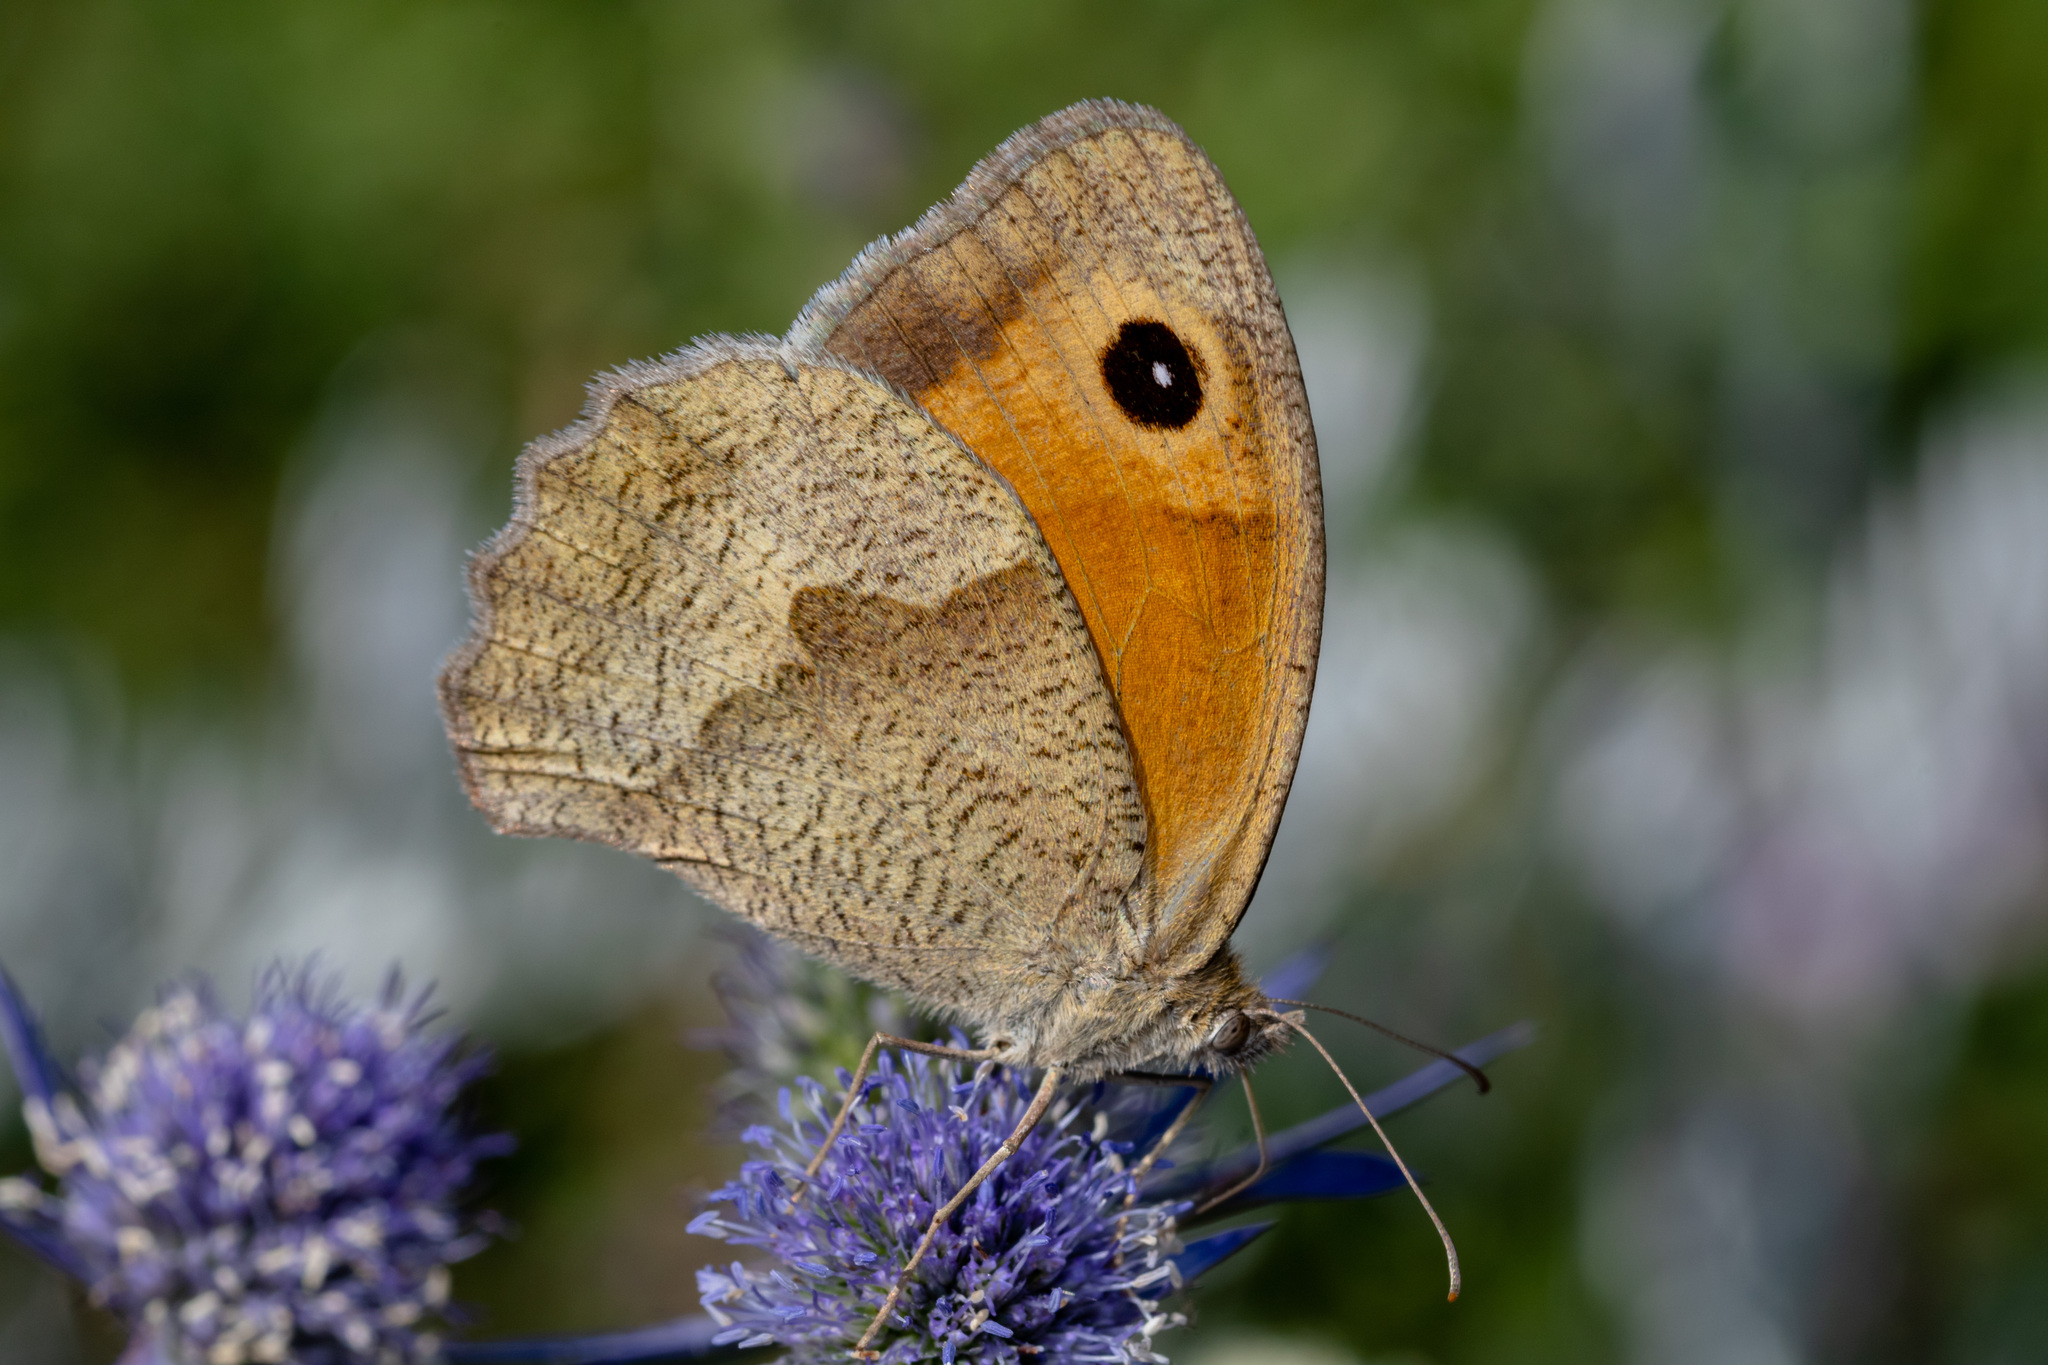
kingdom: Animalia
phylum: Arthropoda
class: Insecta
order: Lepidoptera
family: Nymphalidae
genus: Maniola
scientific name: Maniola jurtina
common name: Meadow brown
